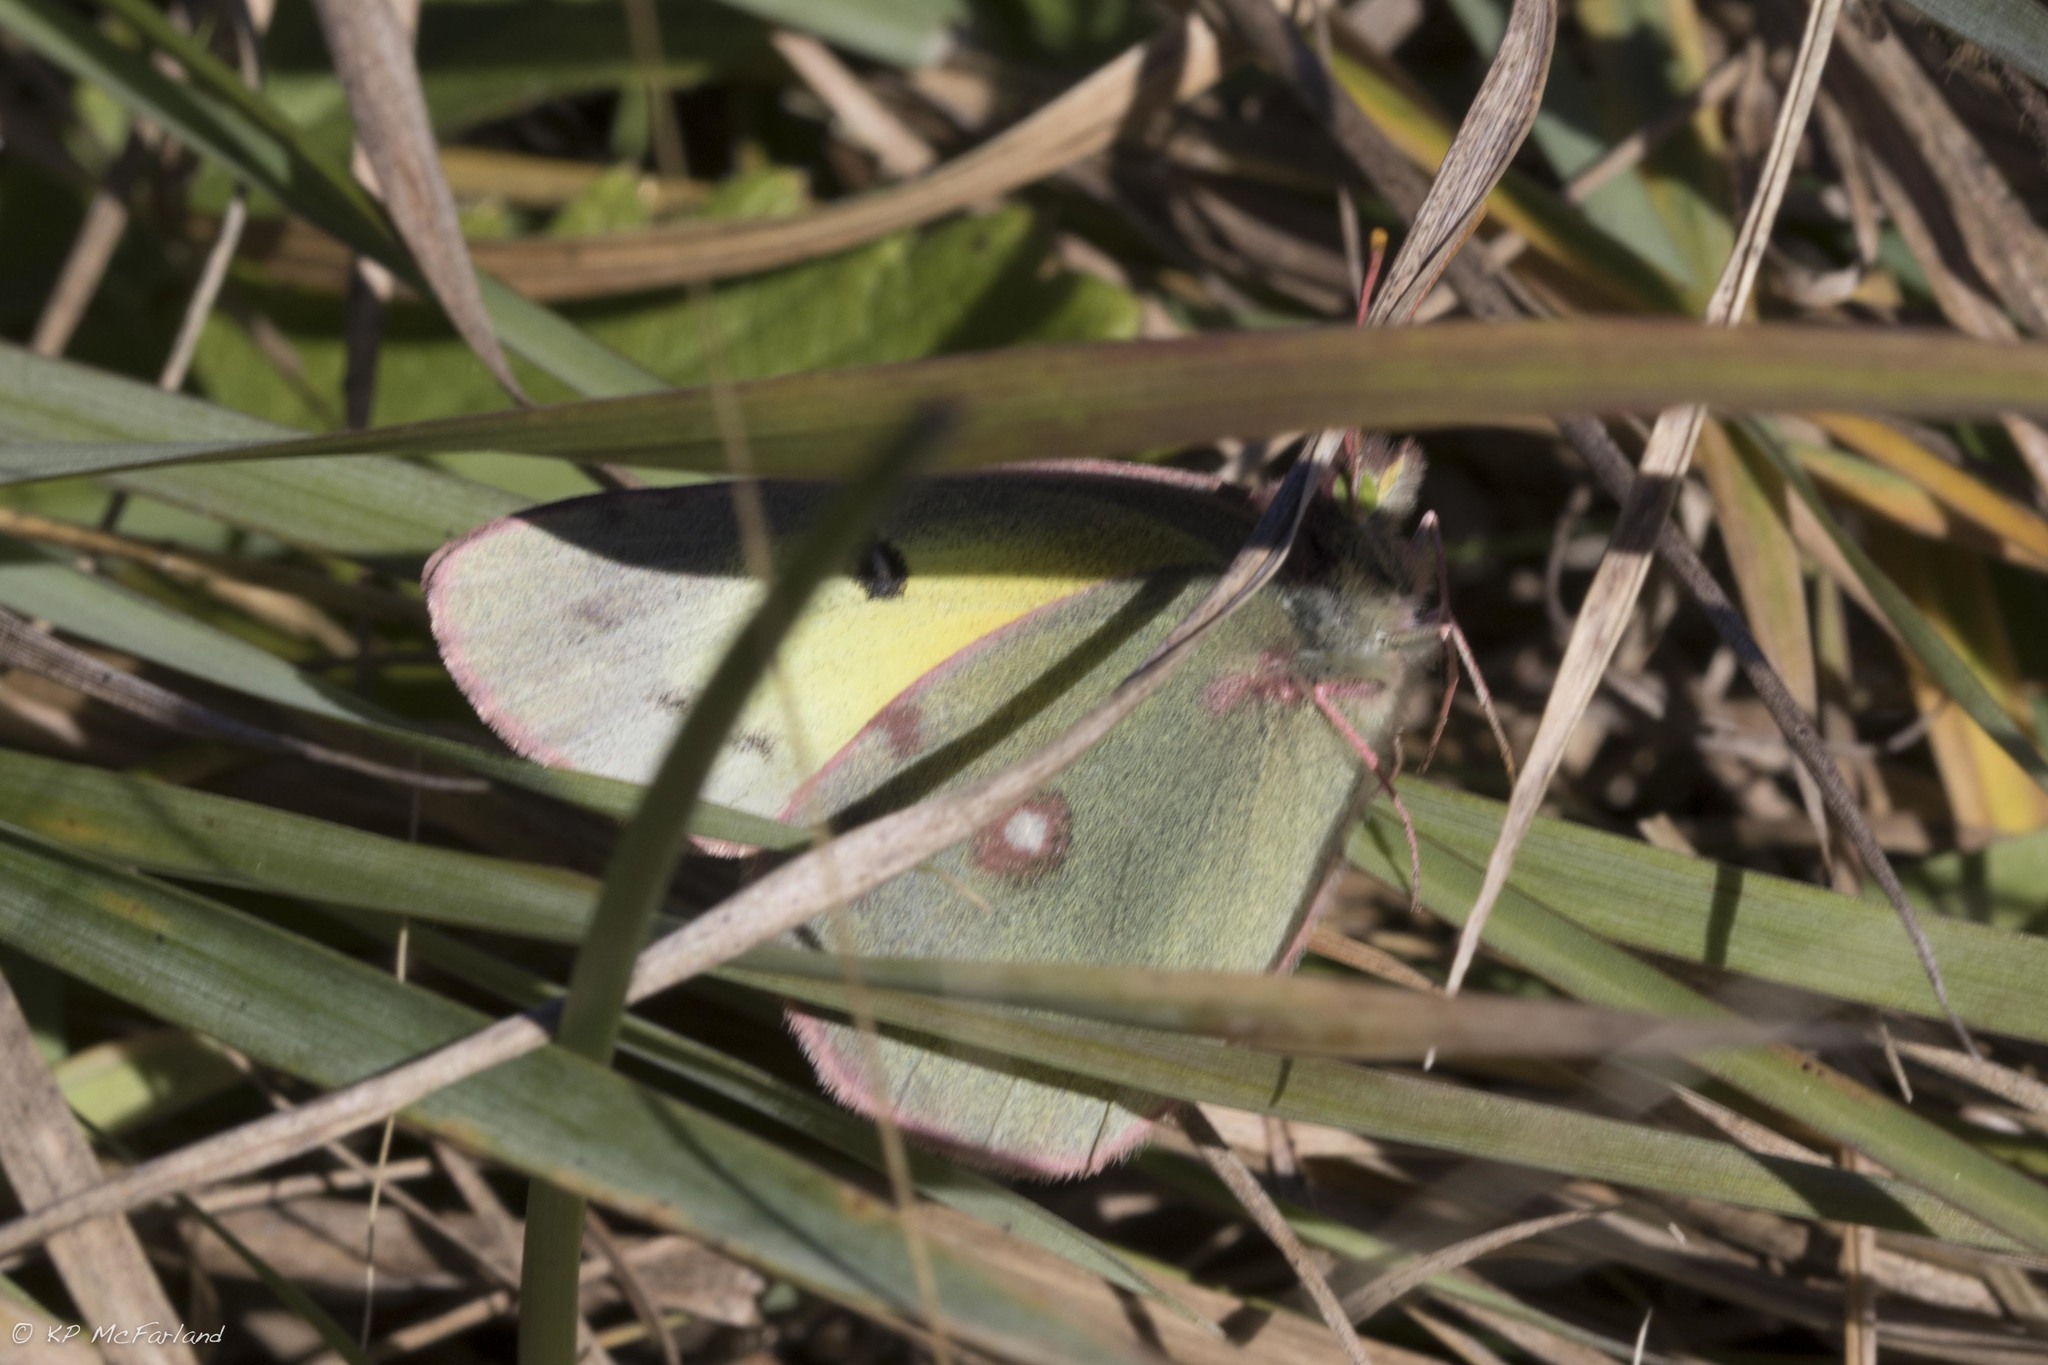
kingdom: Animalia
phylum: Arthropoda
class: Insecta
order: Lepidoptera
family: Pieridae
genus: Colias
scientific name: Colias philodice
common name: Clouded sulphur
